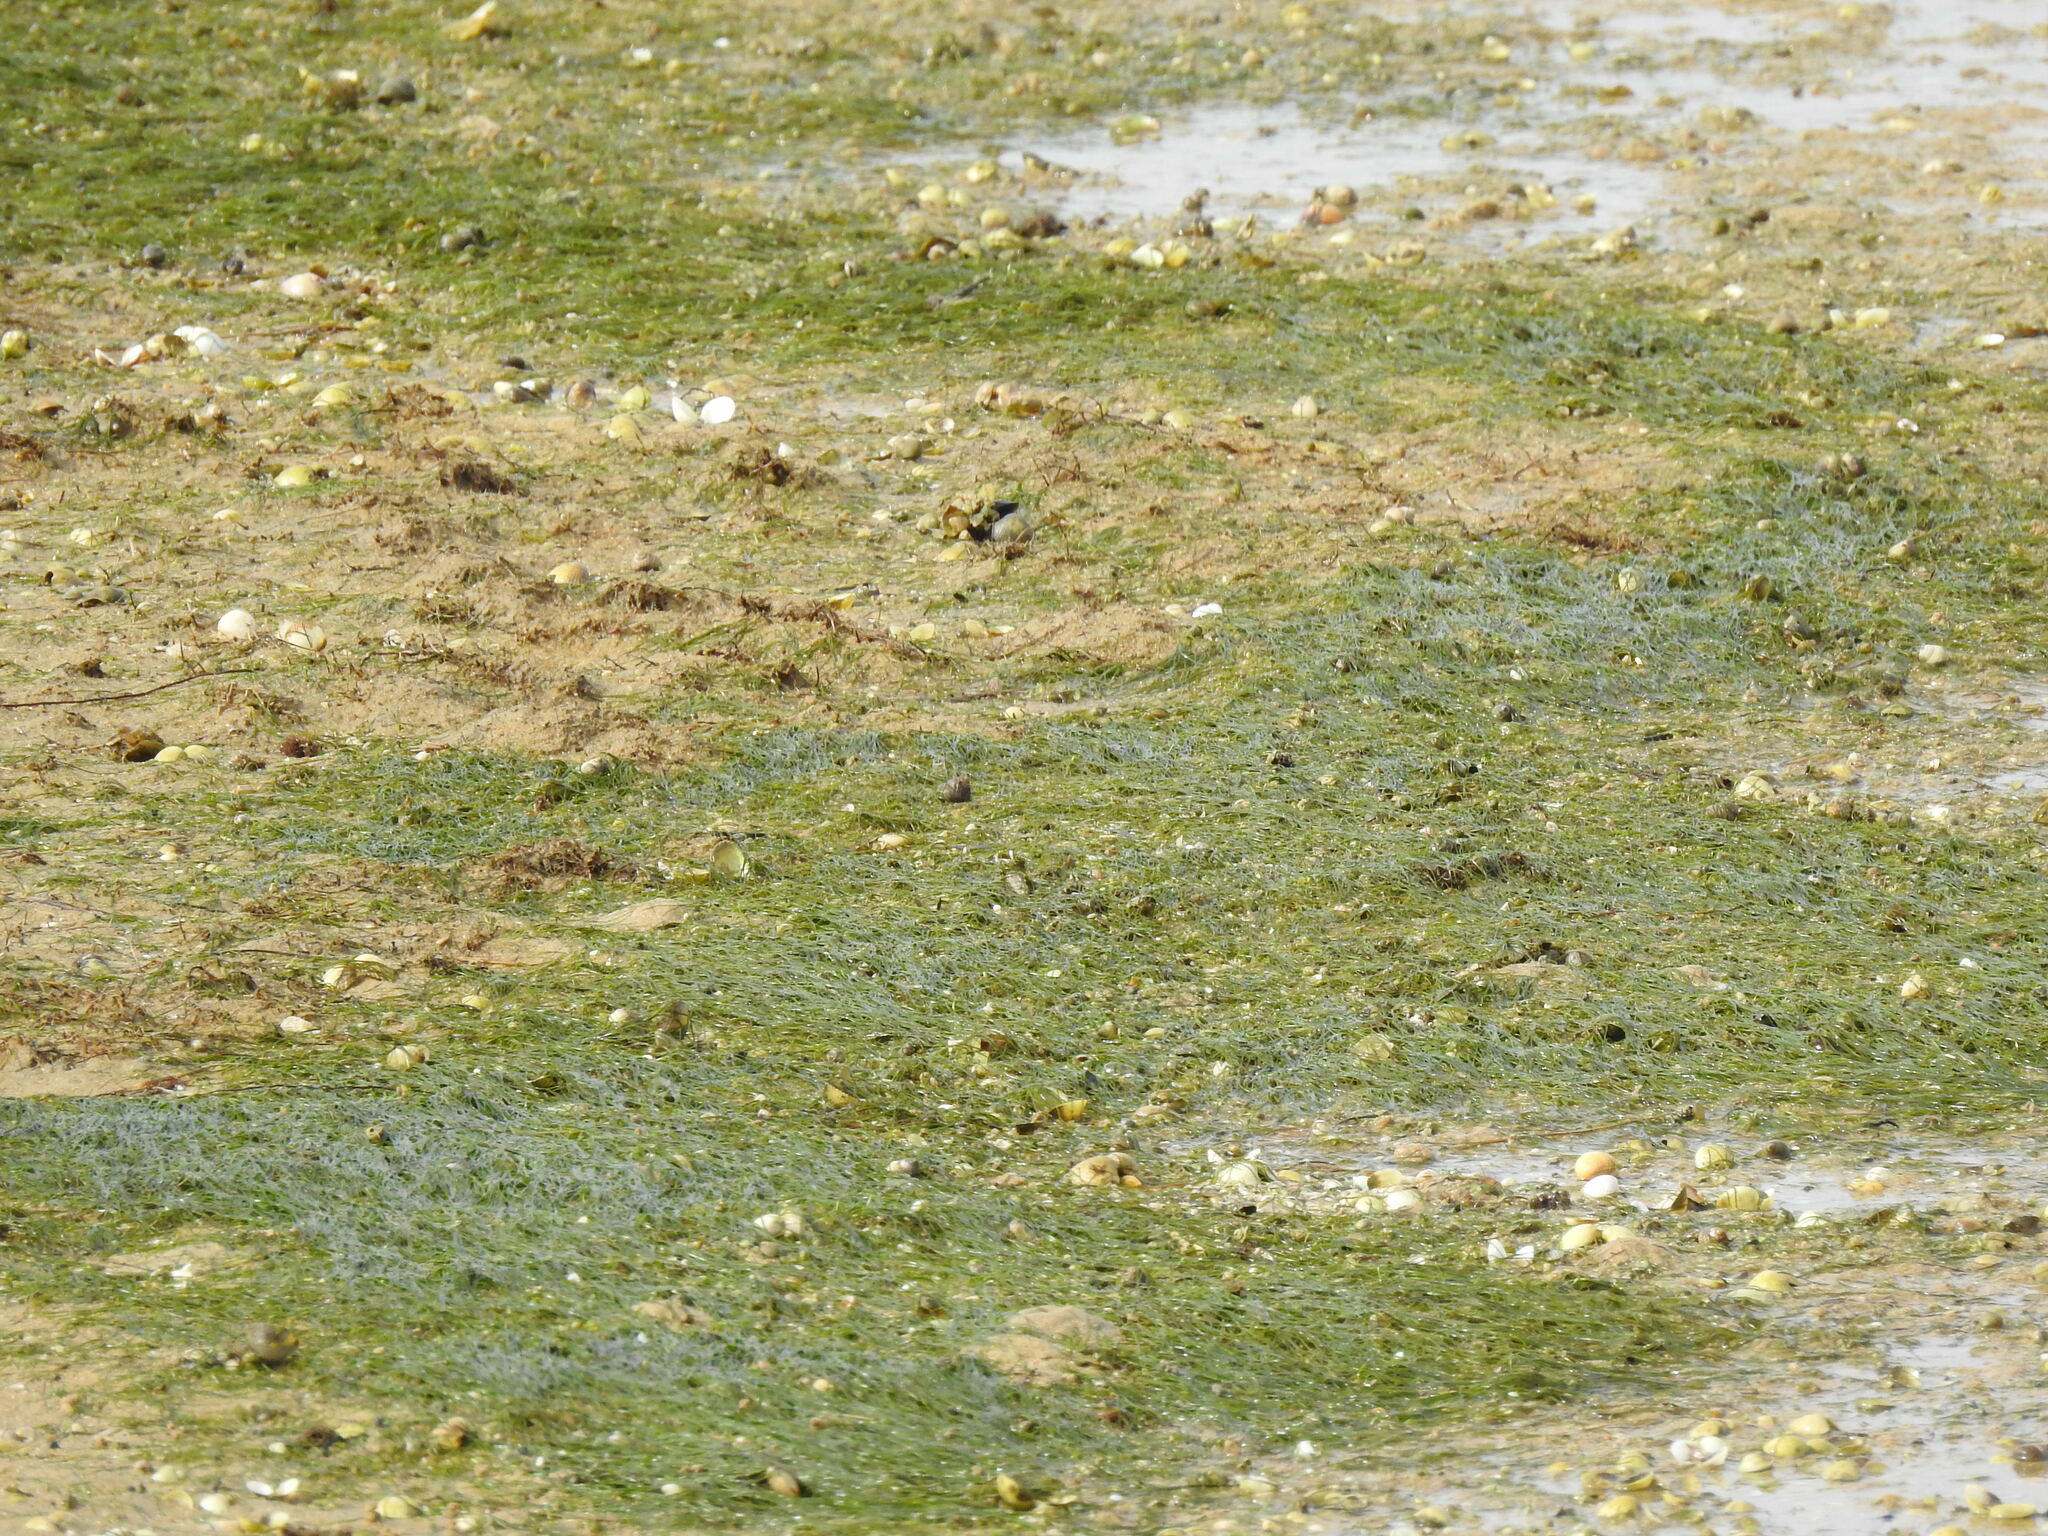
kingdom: Plantae
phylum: Tracheophyta
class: Liliopsida
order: Alismatales
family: Zosteraceae
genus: Zostera
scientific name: Zostera noltii
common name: Dwarf eelgrass
